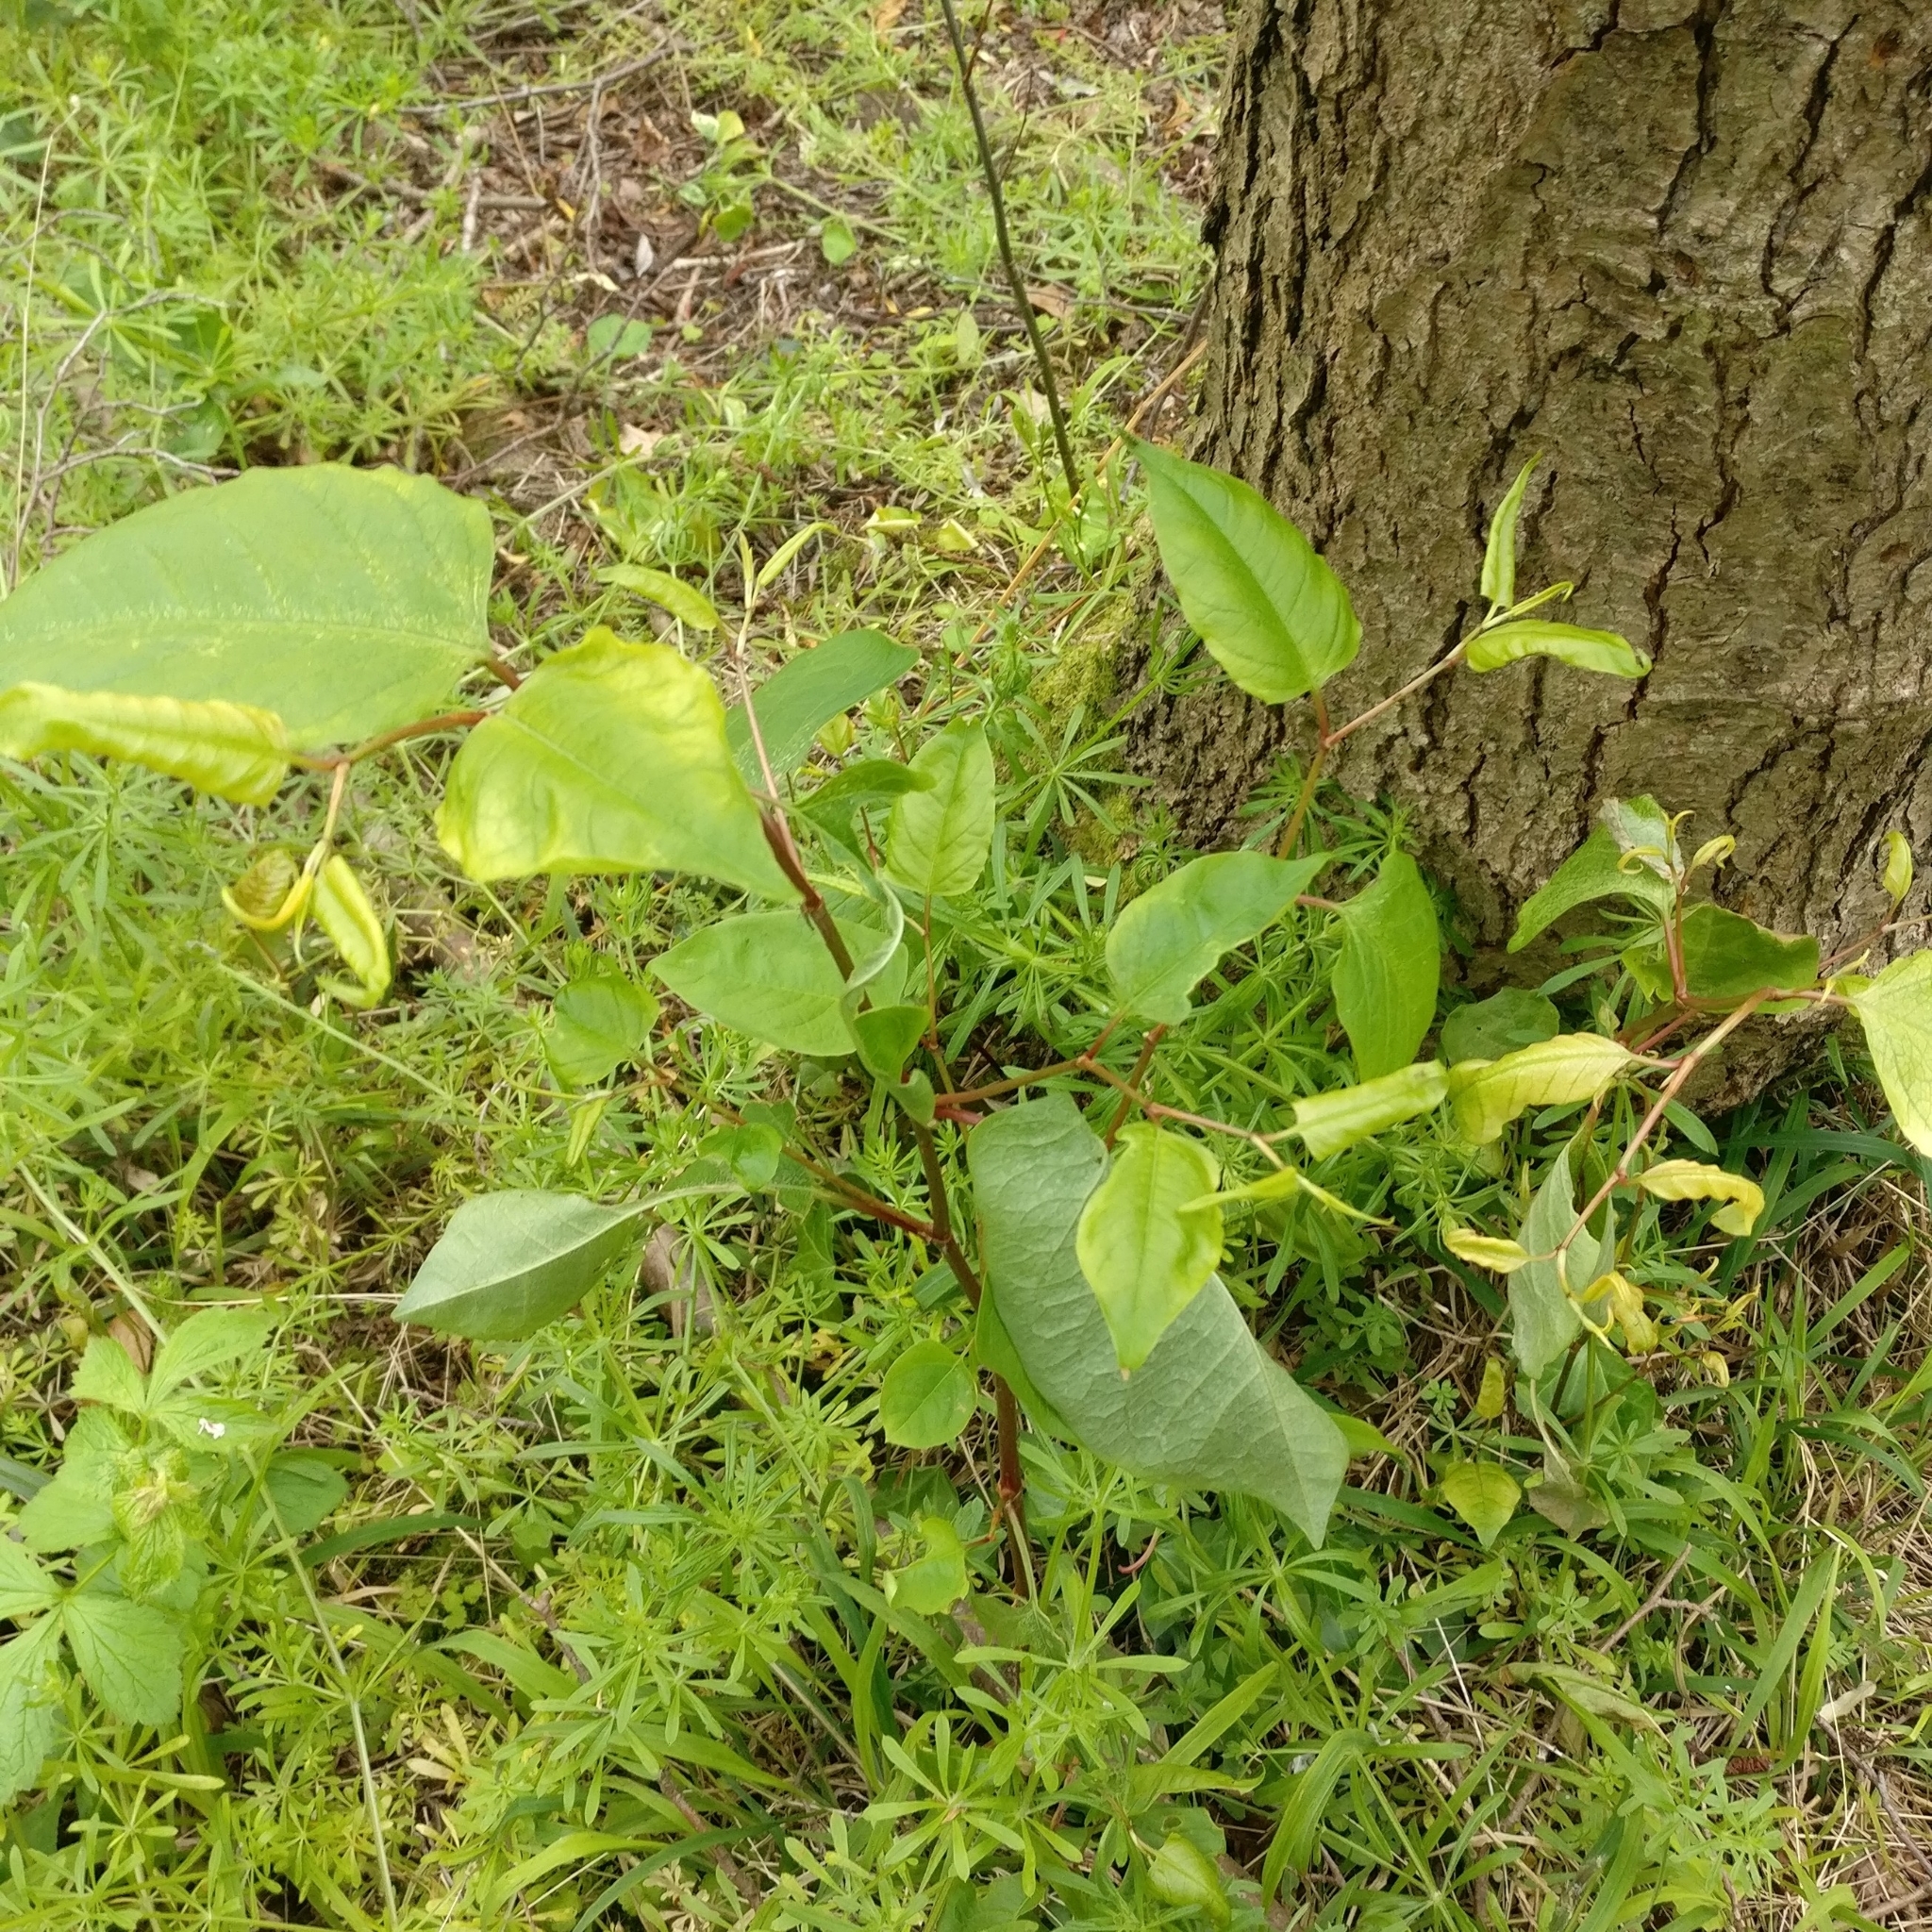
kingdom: Plantae
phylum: Tracheophyta
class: Magnoliopsida
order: Caryophyllales
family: Polygonaceae
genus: Reynoutria
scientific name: Reynoutria japonica
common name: Japanese knotweed
